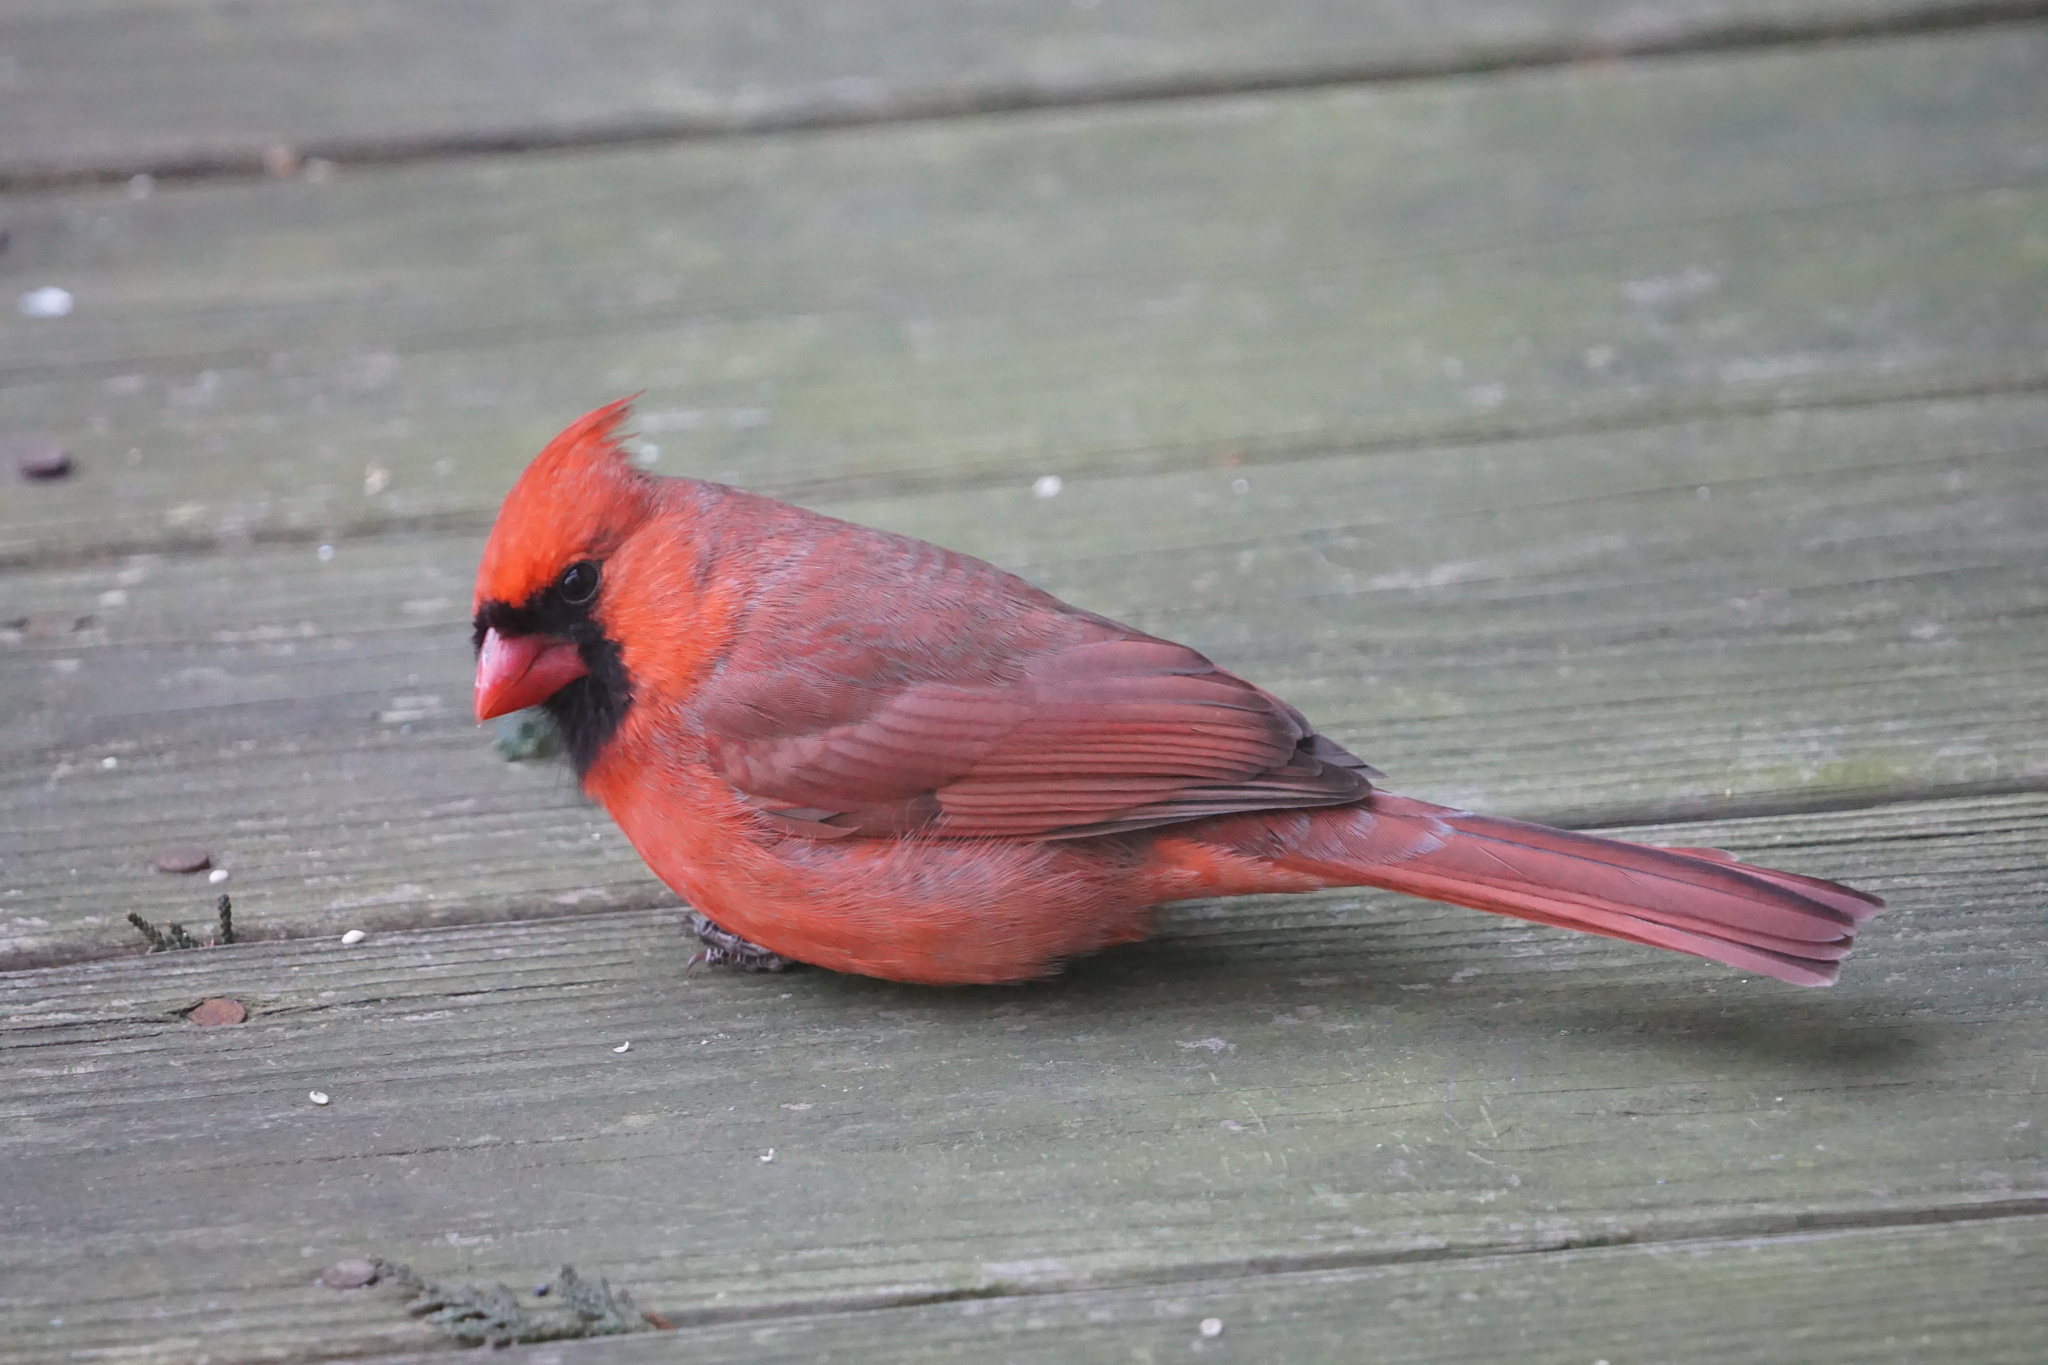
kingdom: Animalia
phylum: Chordata
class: Aves
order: Passeriformes
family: Cardinalidae
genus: Cardinalis
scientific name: Cardinalis cardinalis
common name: Northern cardinal
